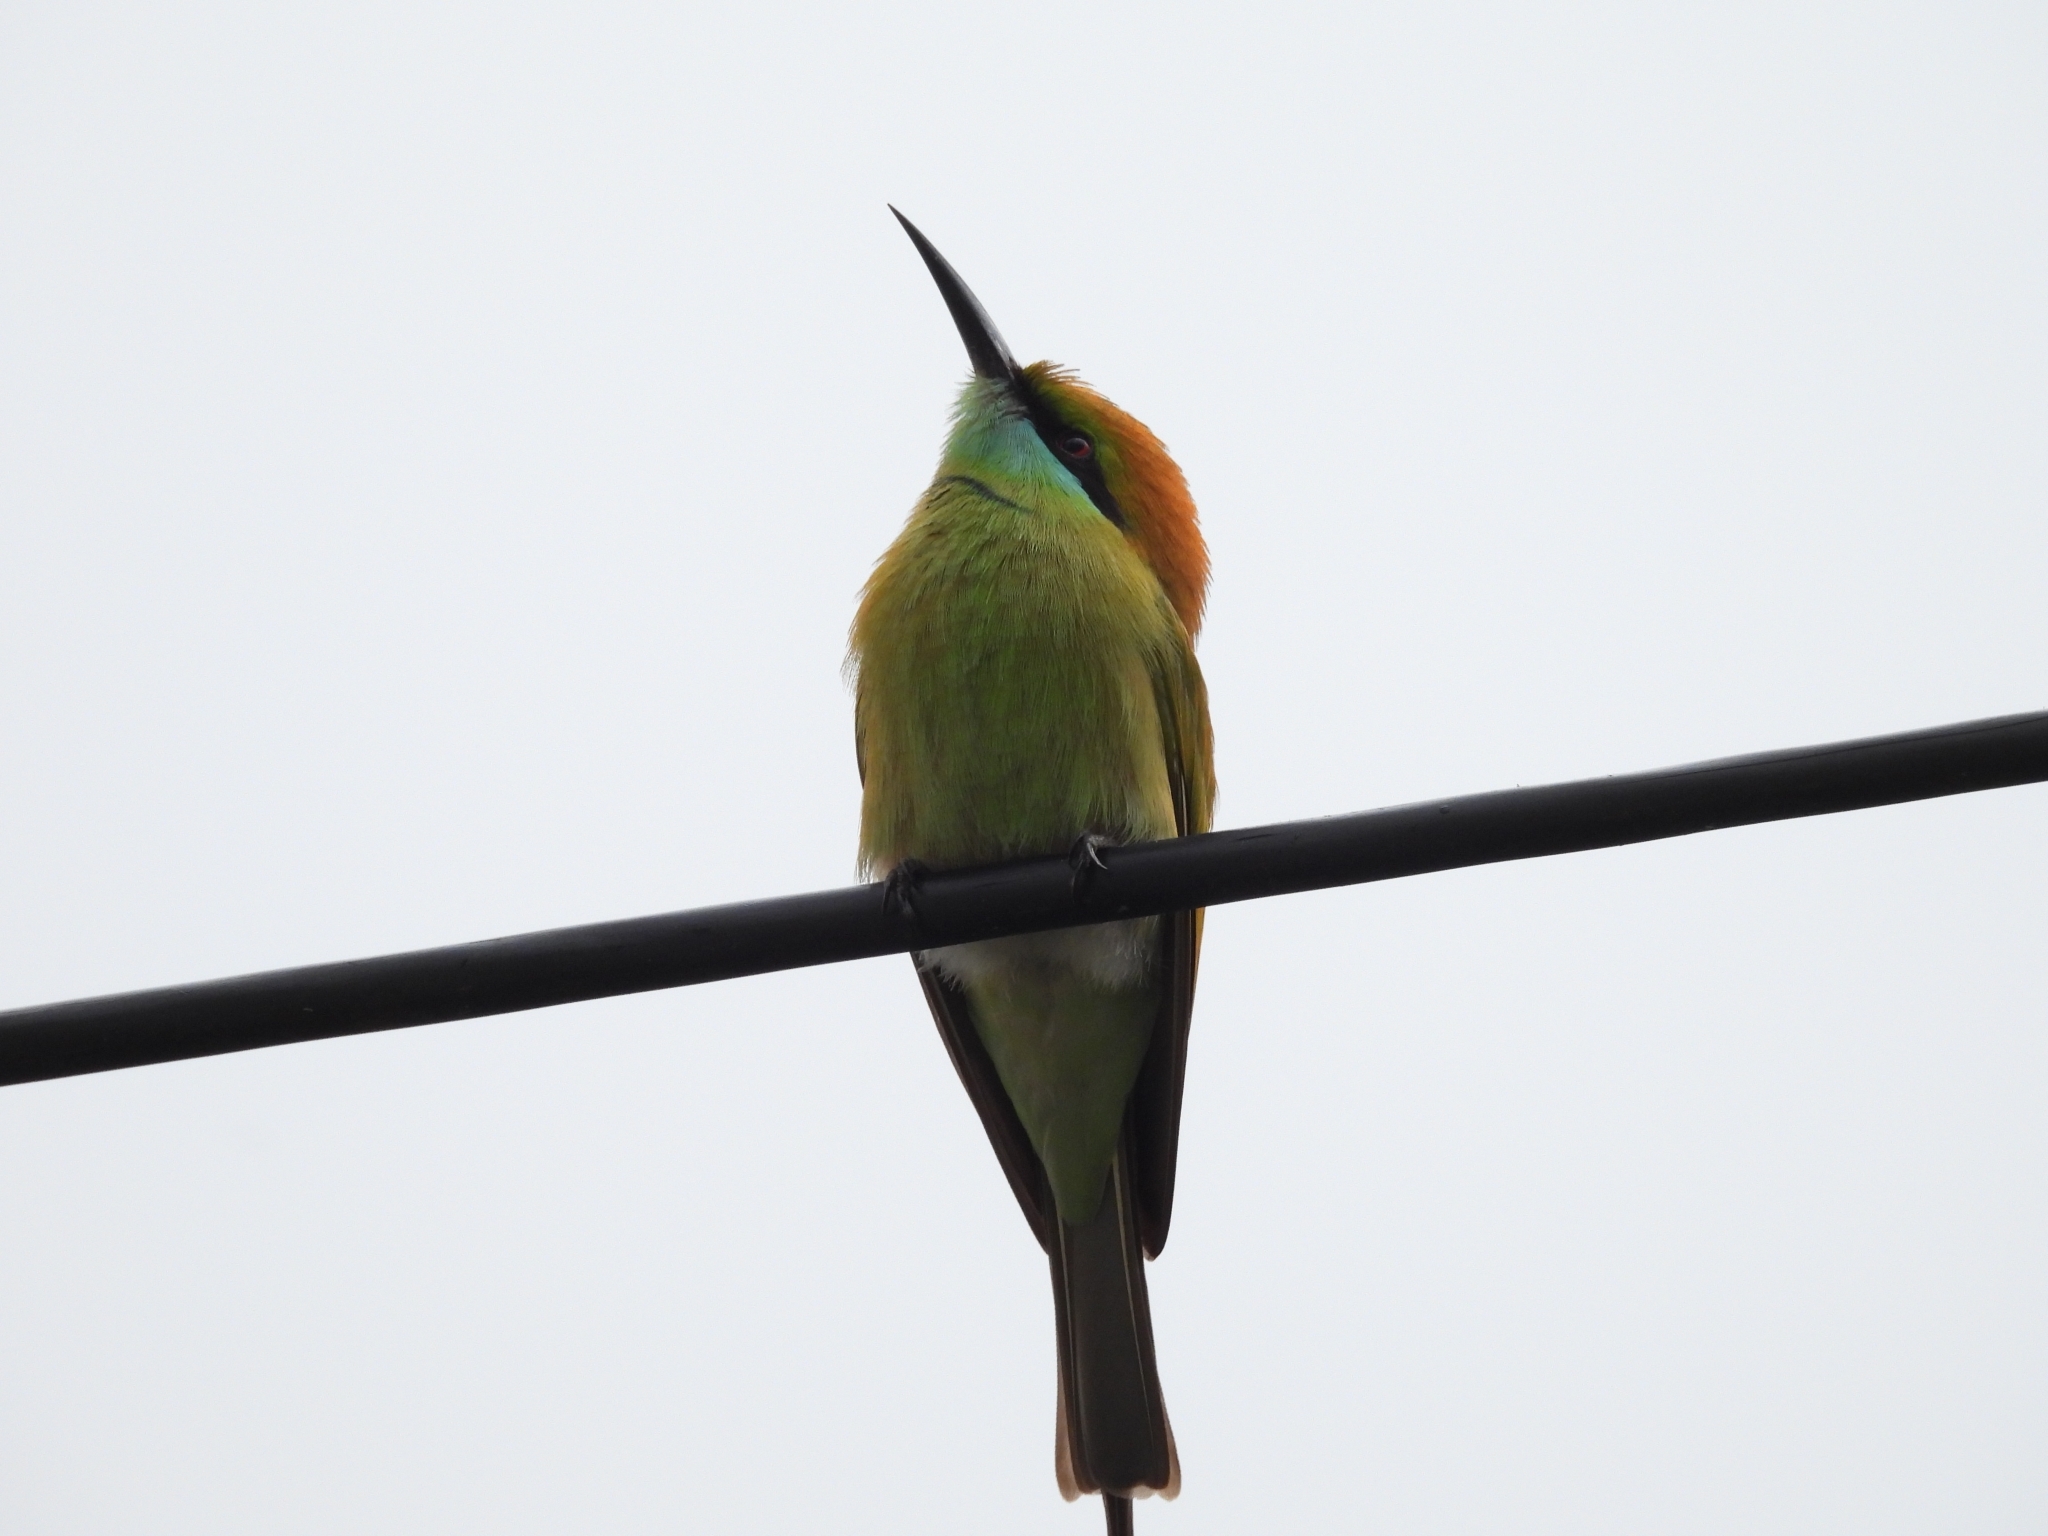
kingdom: Animalia
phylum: Chordata
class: Aves
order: Coraciiformes
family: Meropidae
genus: Merops
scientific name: Merops orientalis
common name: Green bee-eater
